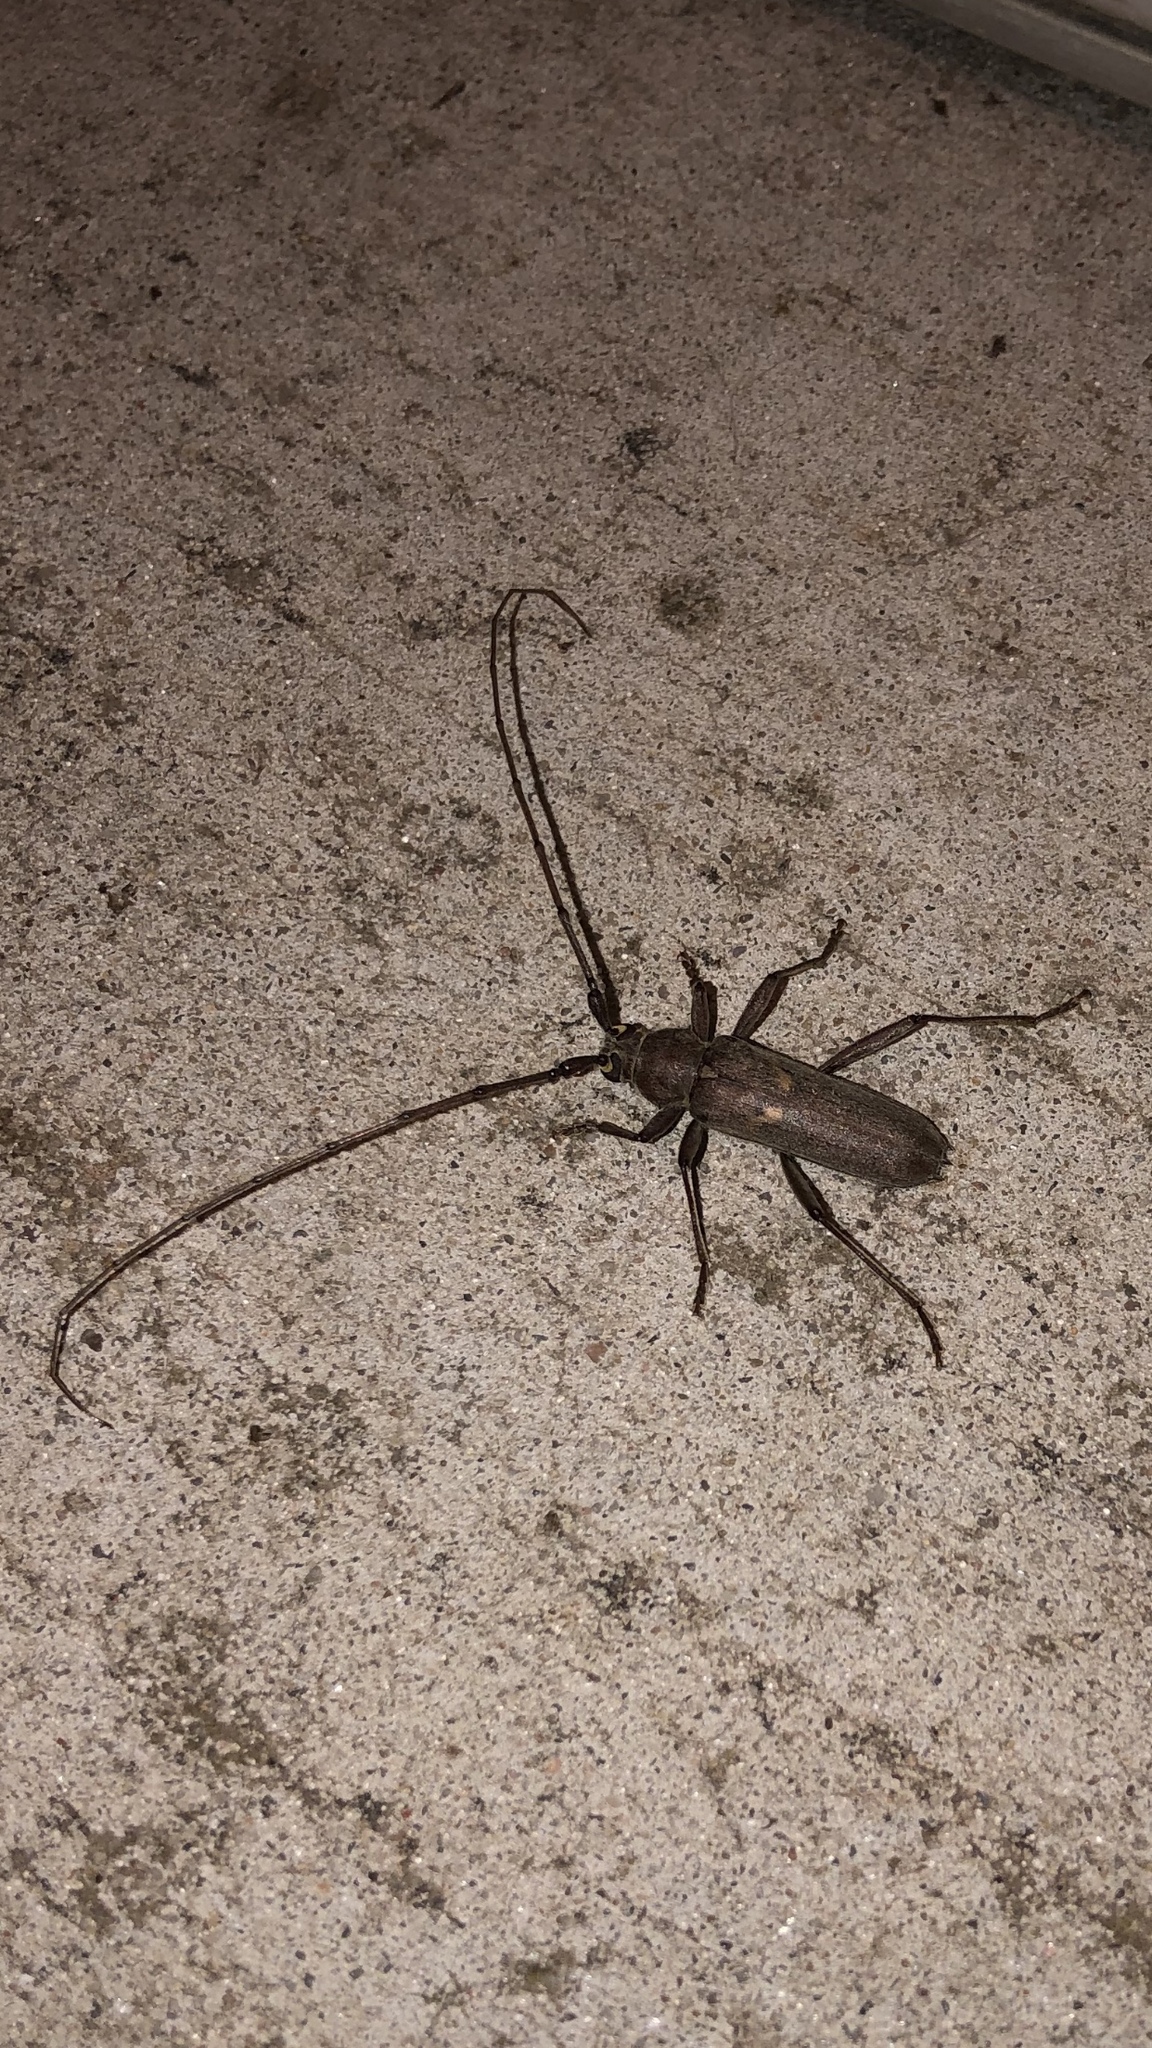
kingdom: Animalia
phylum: Arthropoda
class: Insecta
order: Coleoptera
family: Cerambycidae
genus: Knulliana
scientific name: Knulliana cincta
